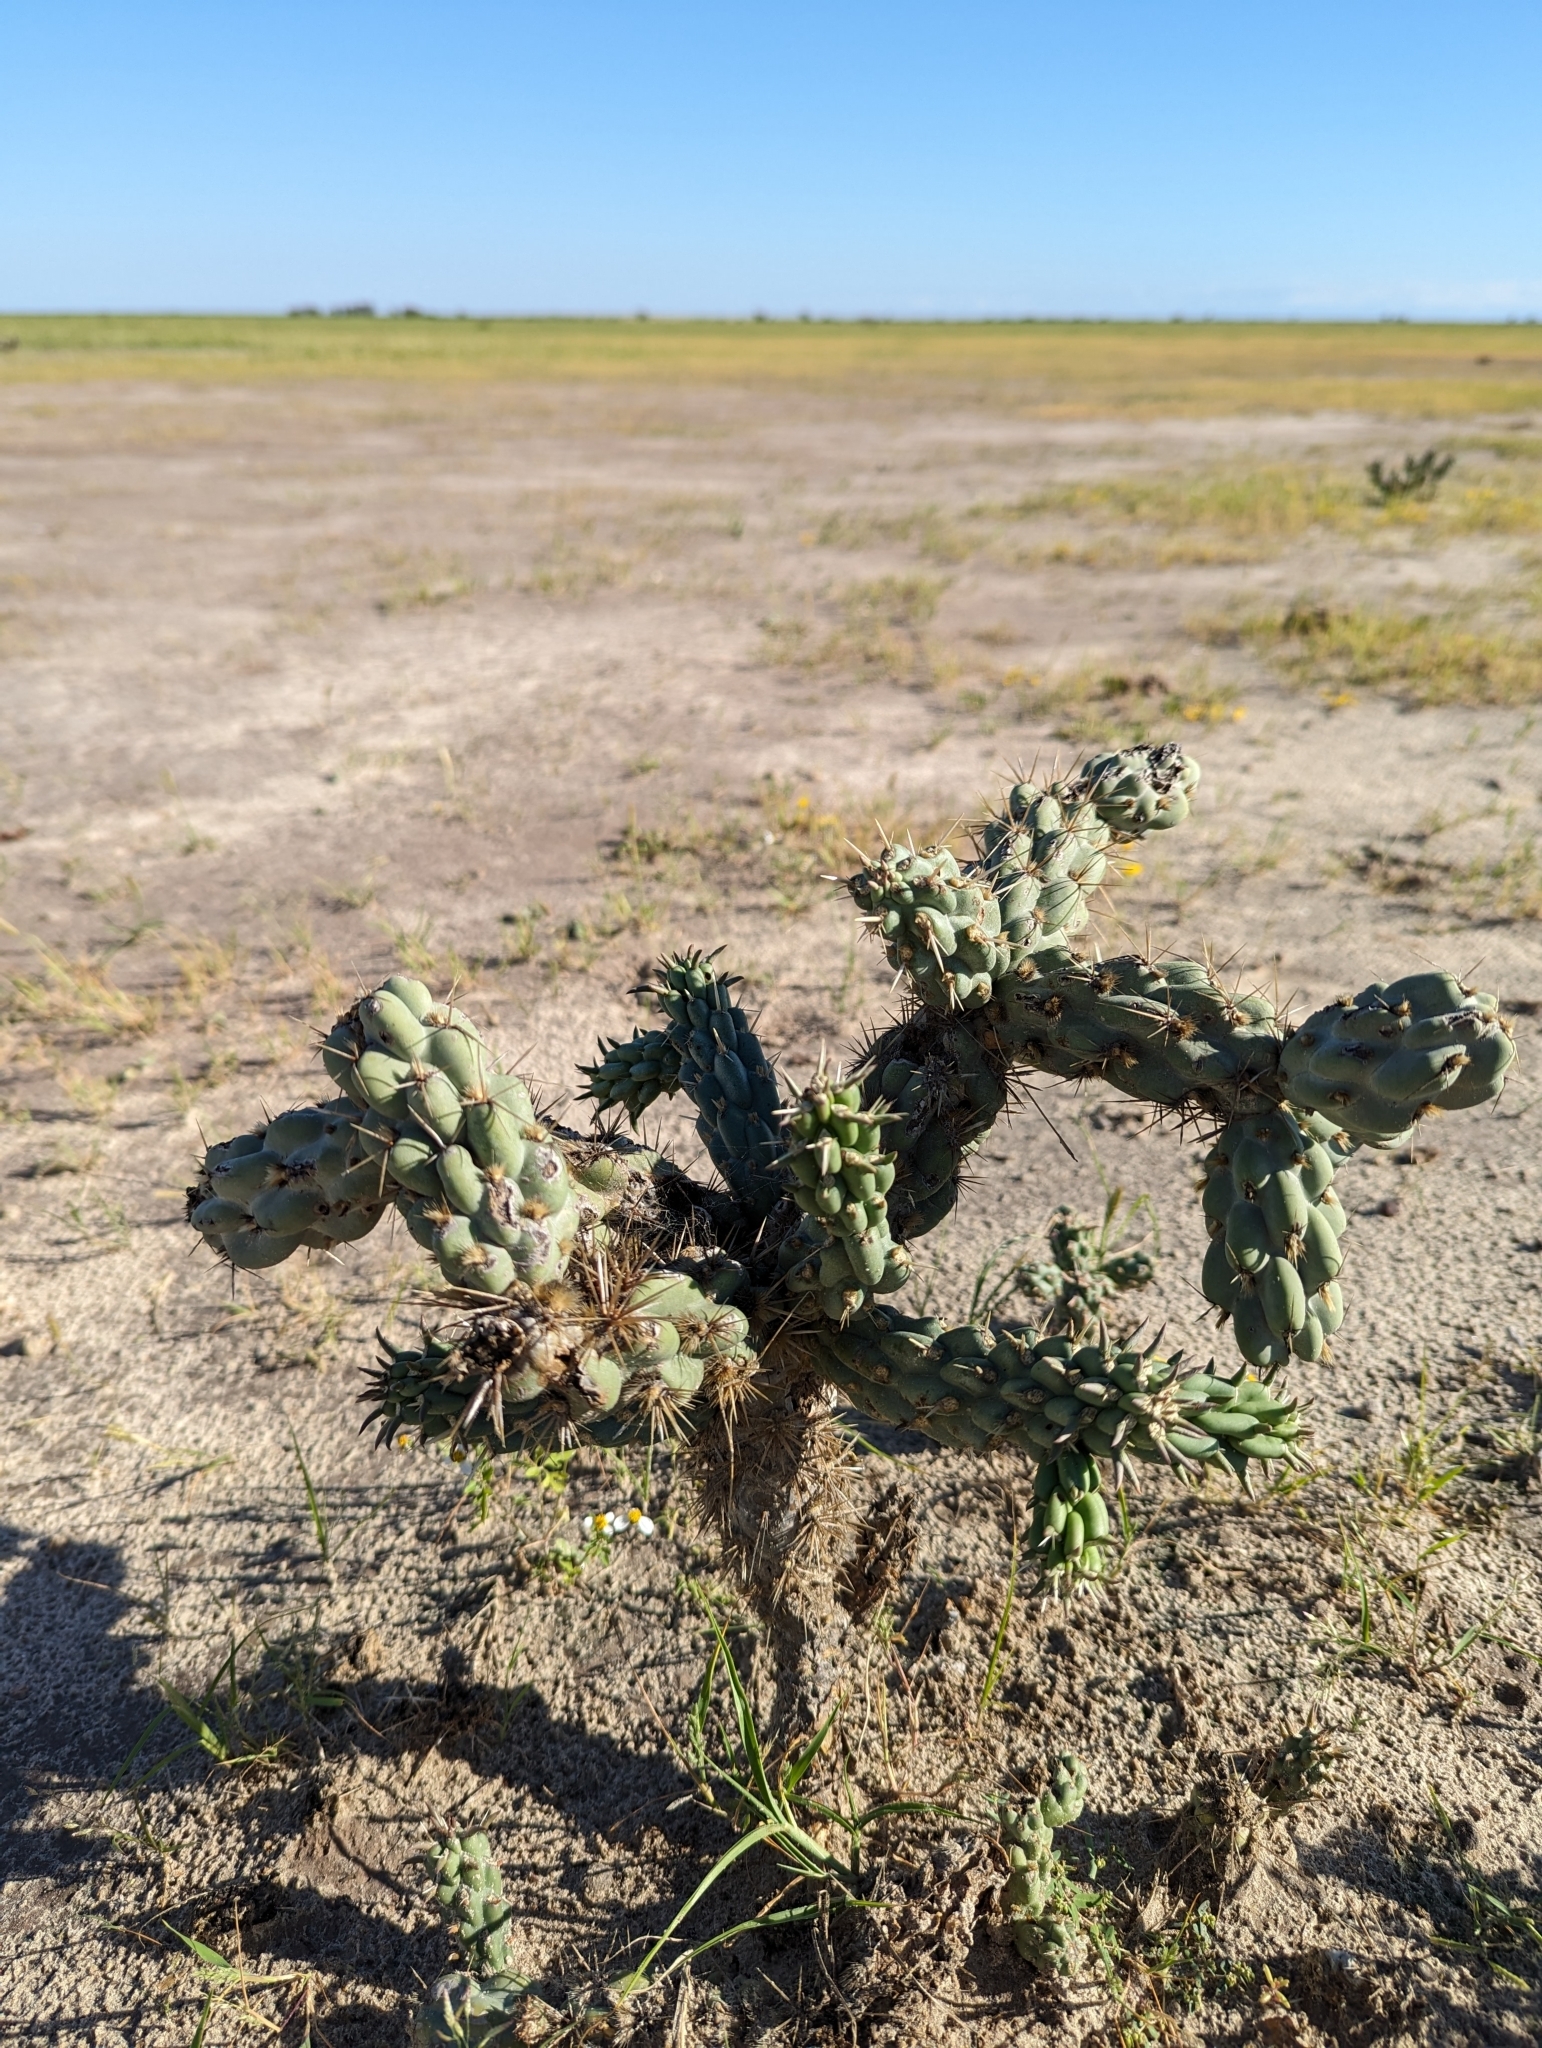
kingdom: Plantae
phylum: Tracheophyta
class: Magnoliopsida
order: Caryophyllales
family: Cactaceae
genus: Cylindropuntia
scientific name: Cylindropuntia cholla
